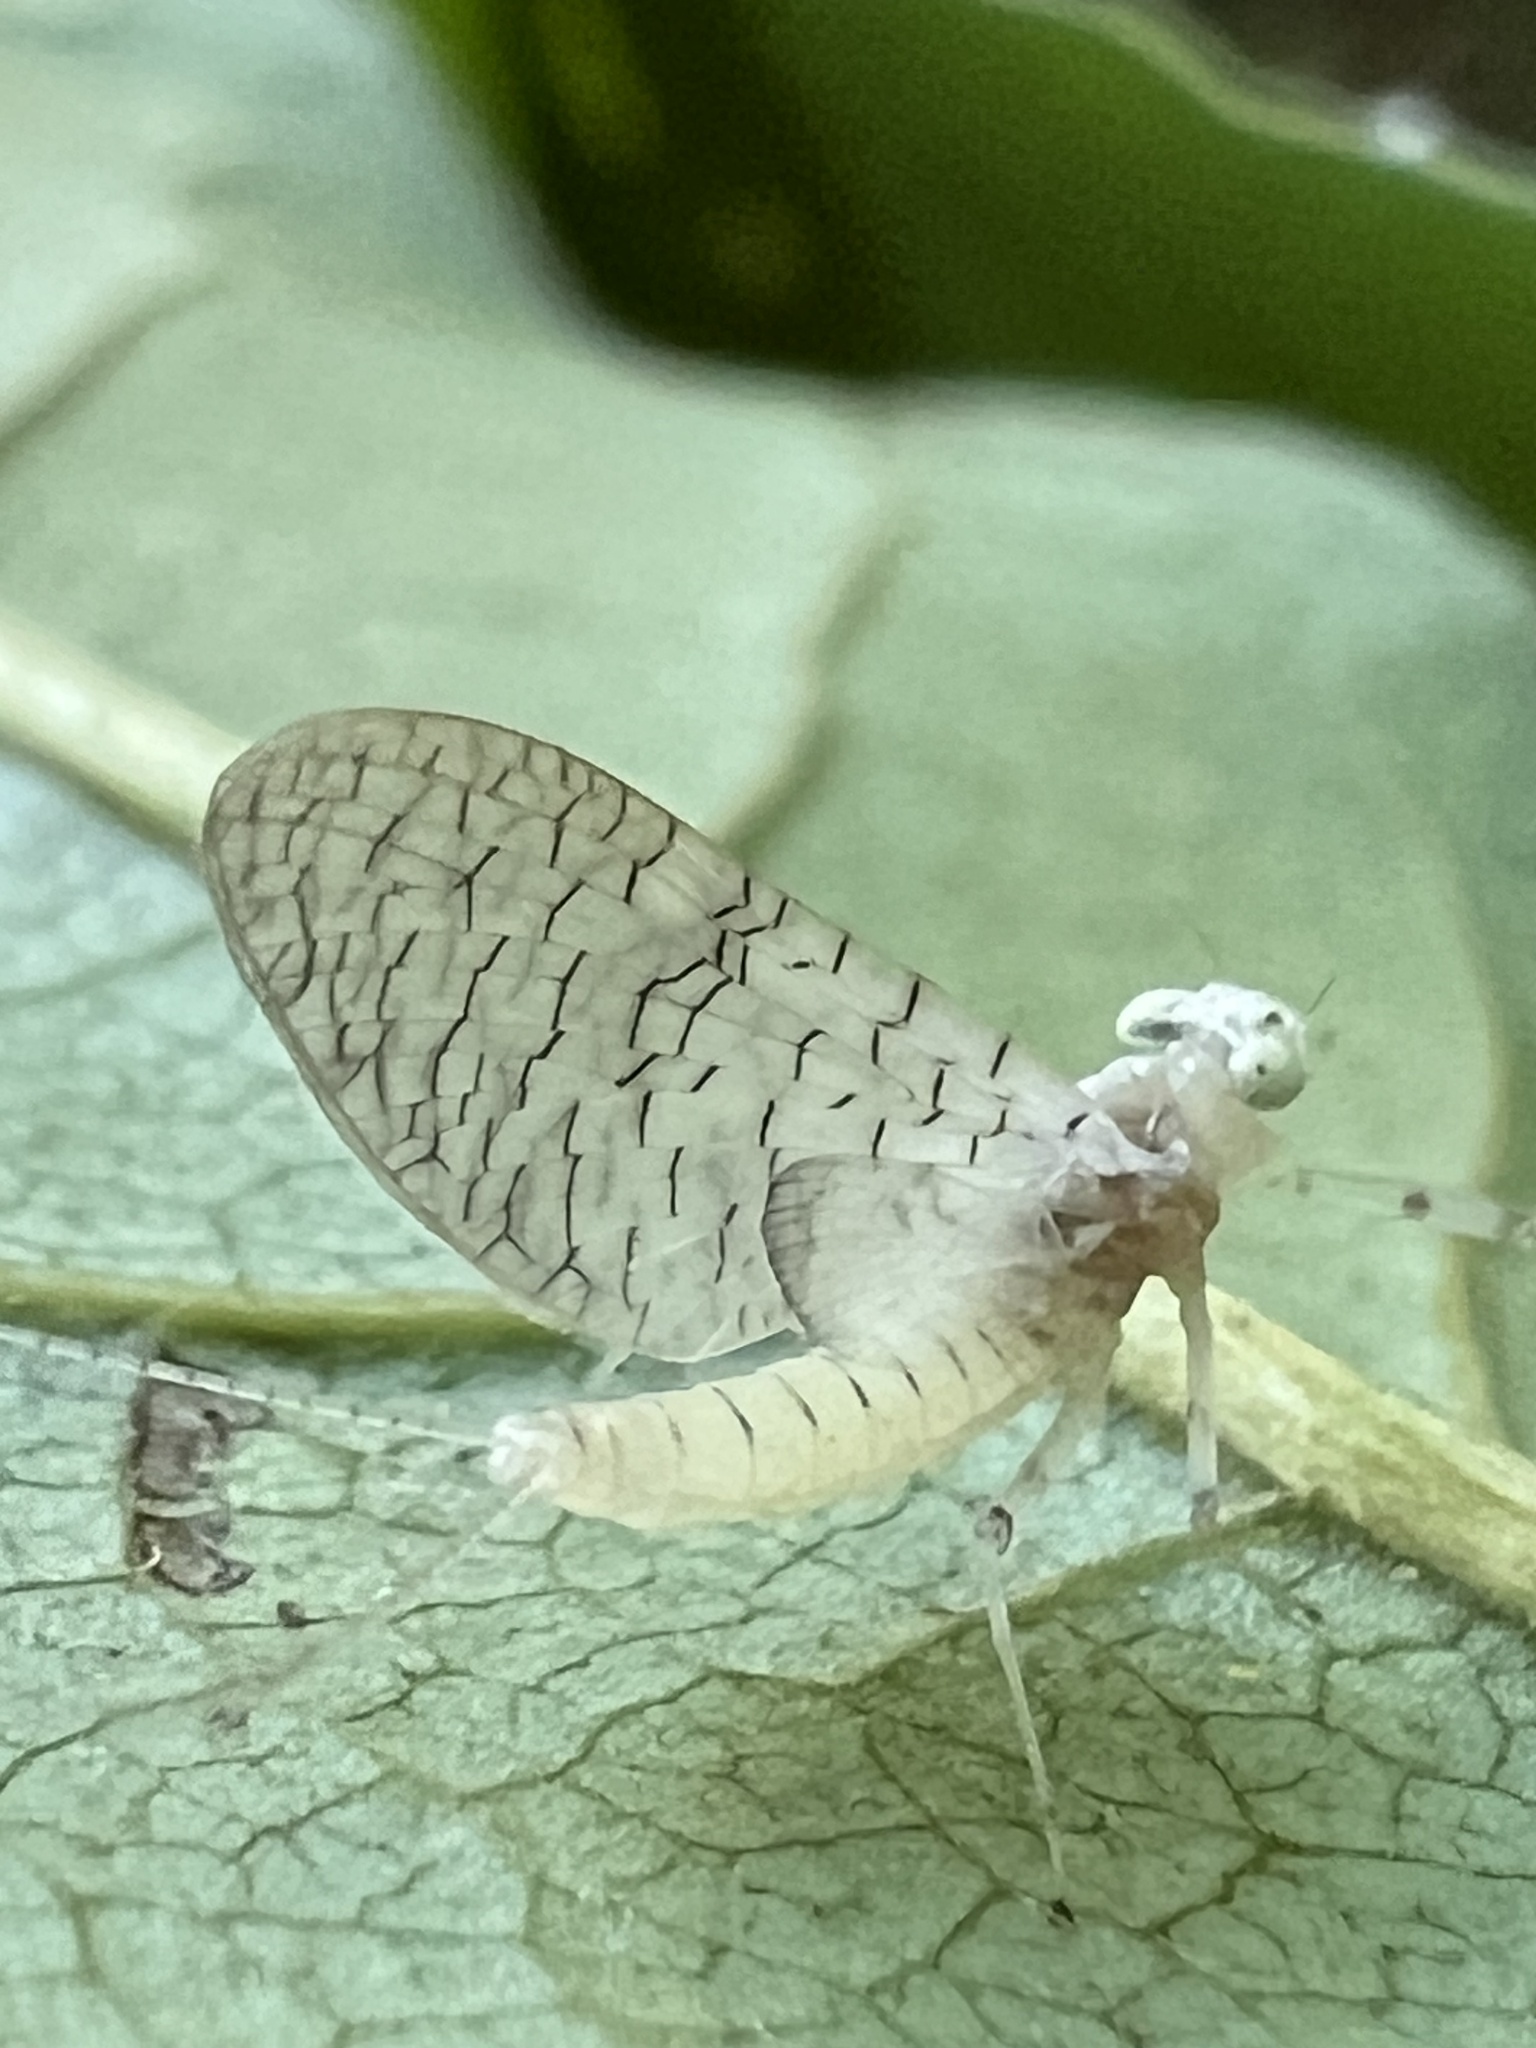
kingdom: Animalia
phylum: Arthropoda
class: Insecta
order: Ephemeroptera
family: Heptageniidae
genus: Maccaffertium
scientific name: Maccaffertium terminatum
